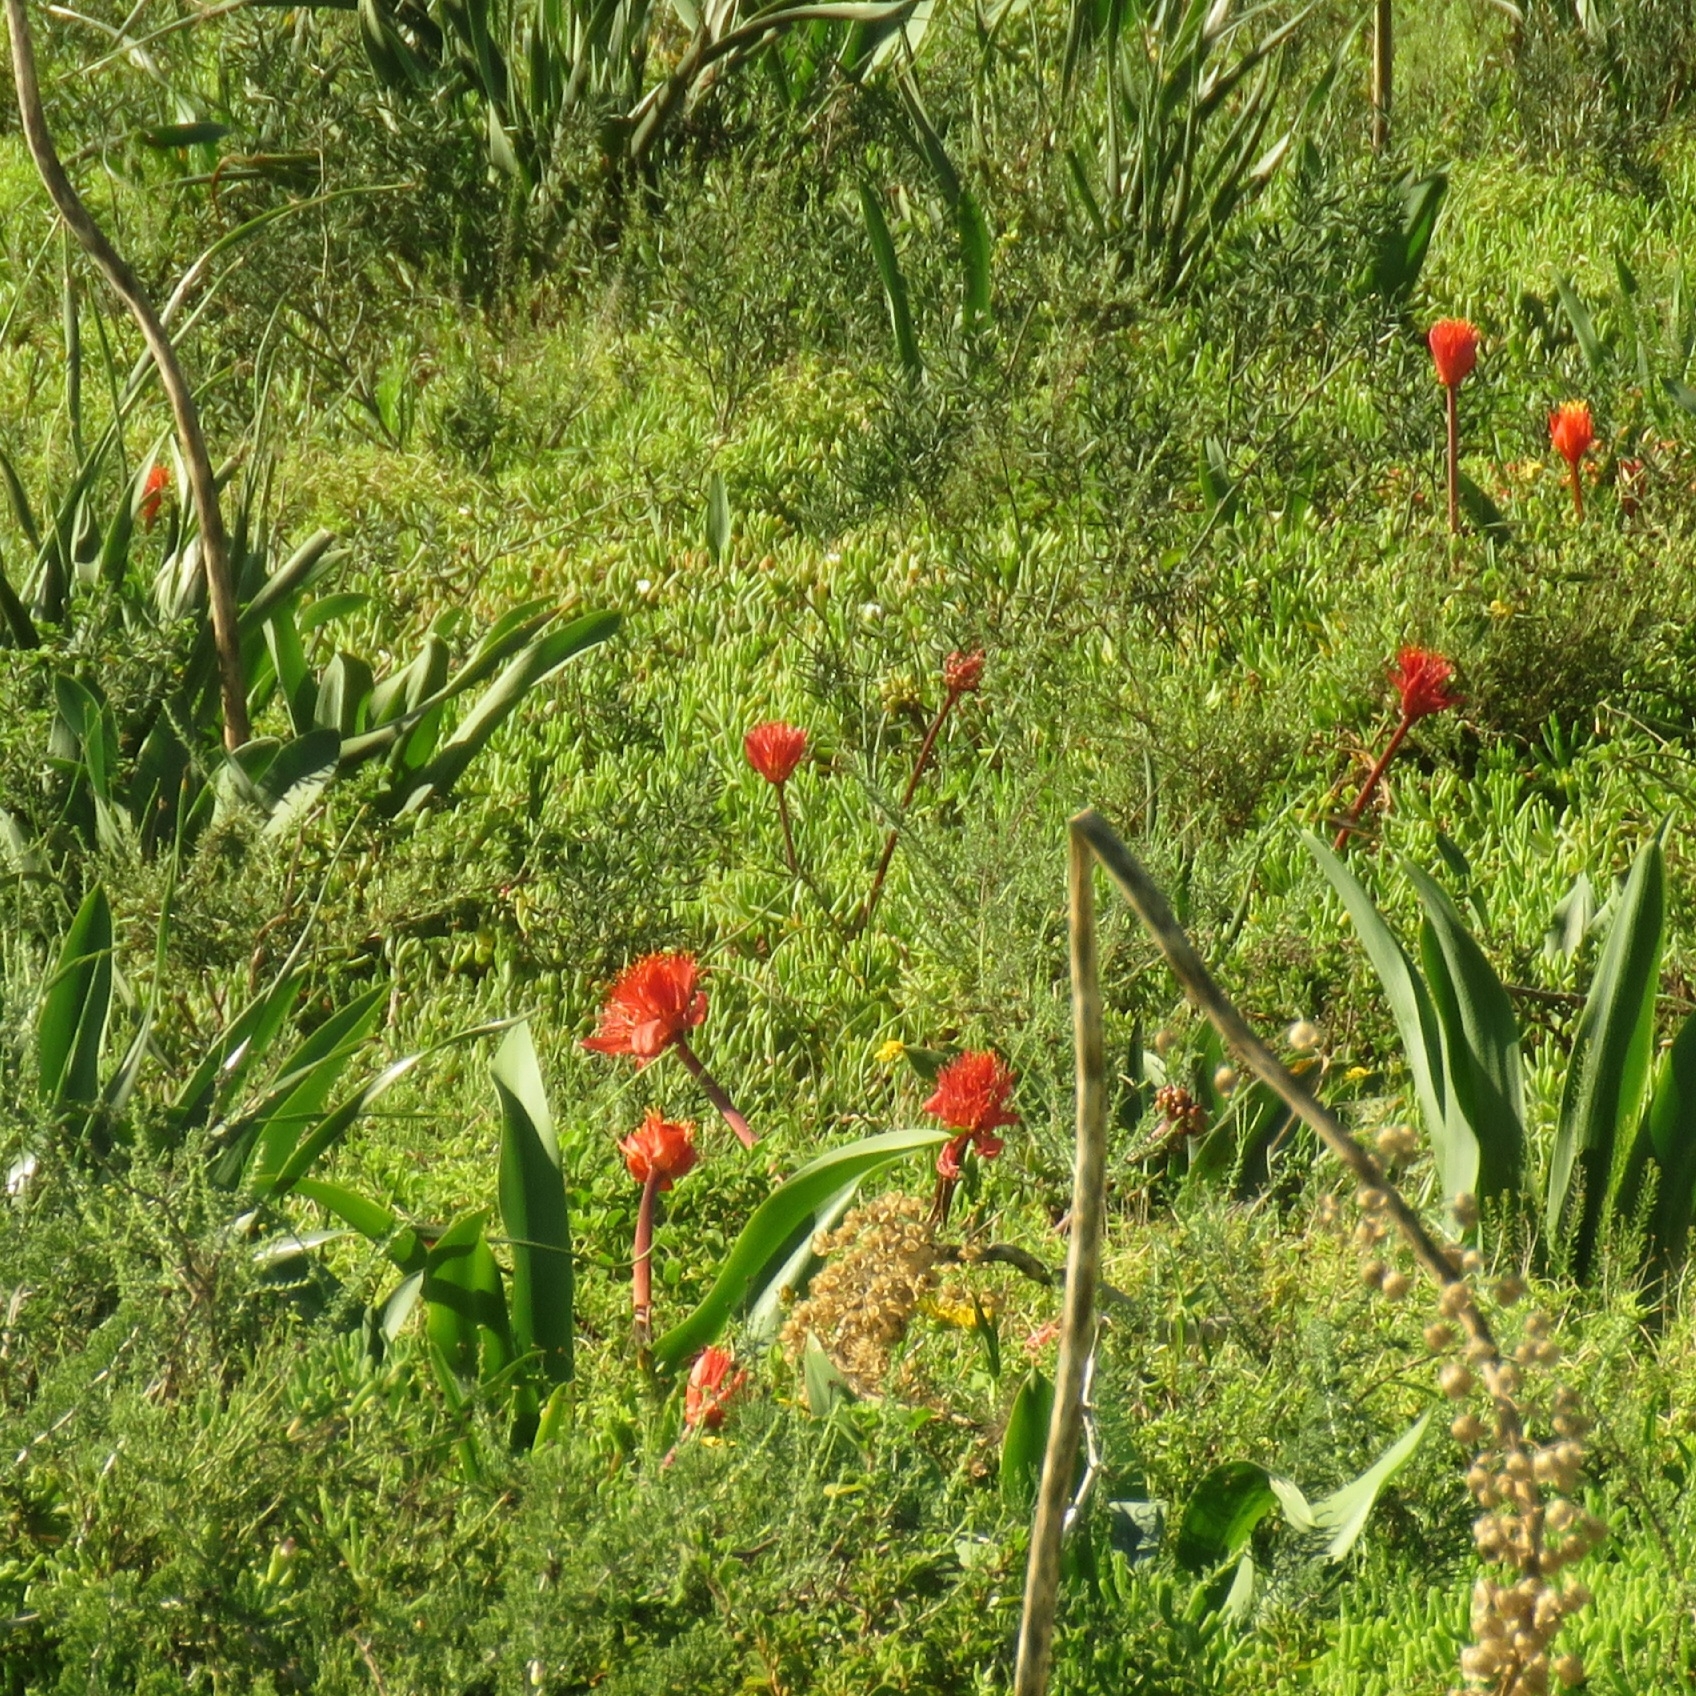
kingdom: Plantae
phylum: Tracheophyta
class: Liliopsida
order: Asparagales
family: Amaryllidaceae
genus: Haemanthus
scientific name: Haemanthus coccineus
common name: Cape-tulip
